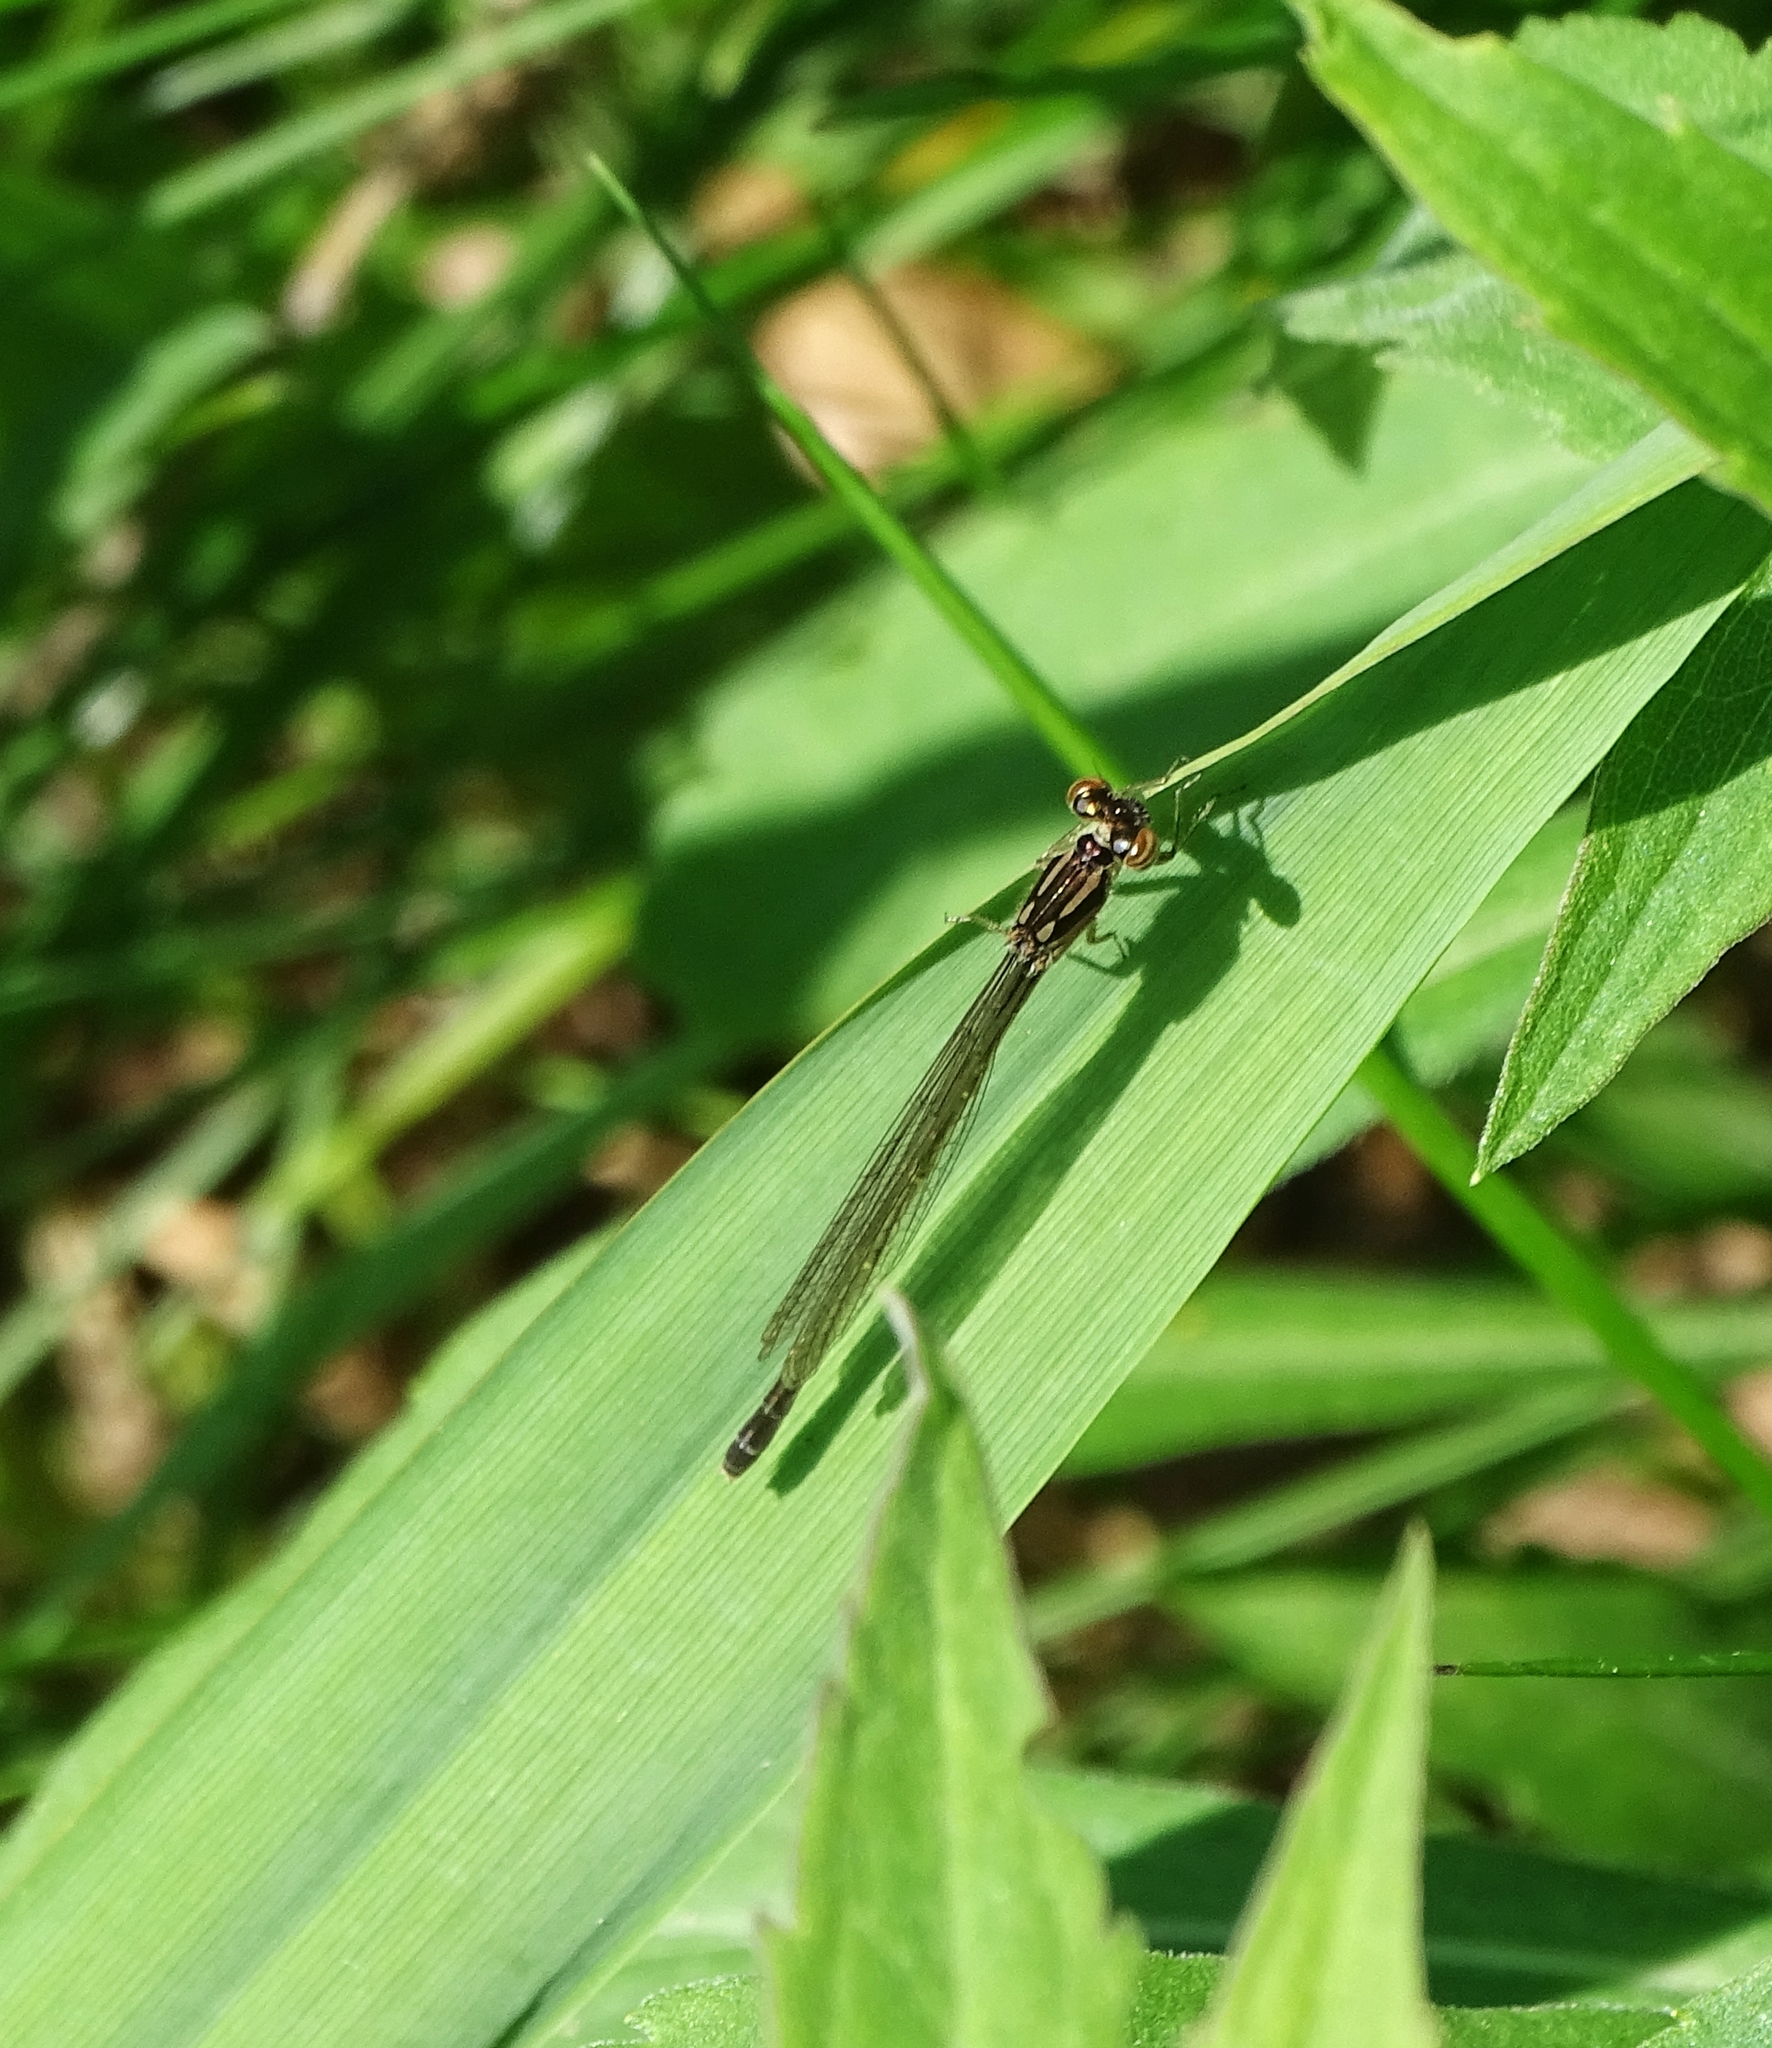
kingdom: Animalia
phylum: Arthropoda
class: Insecta
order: Odonata
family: Coenagrionidae
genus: Ischnura
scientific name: Ischnura posita
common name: Fragile forktail
